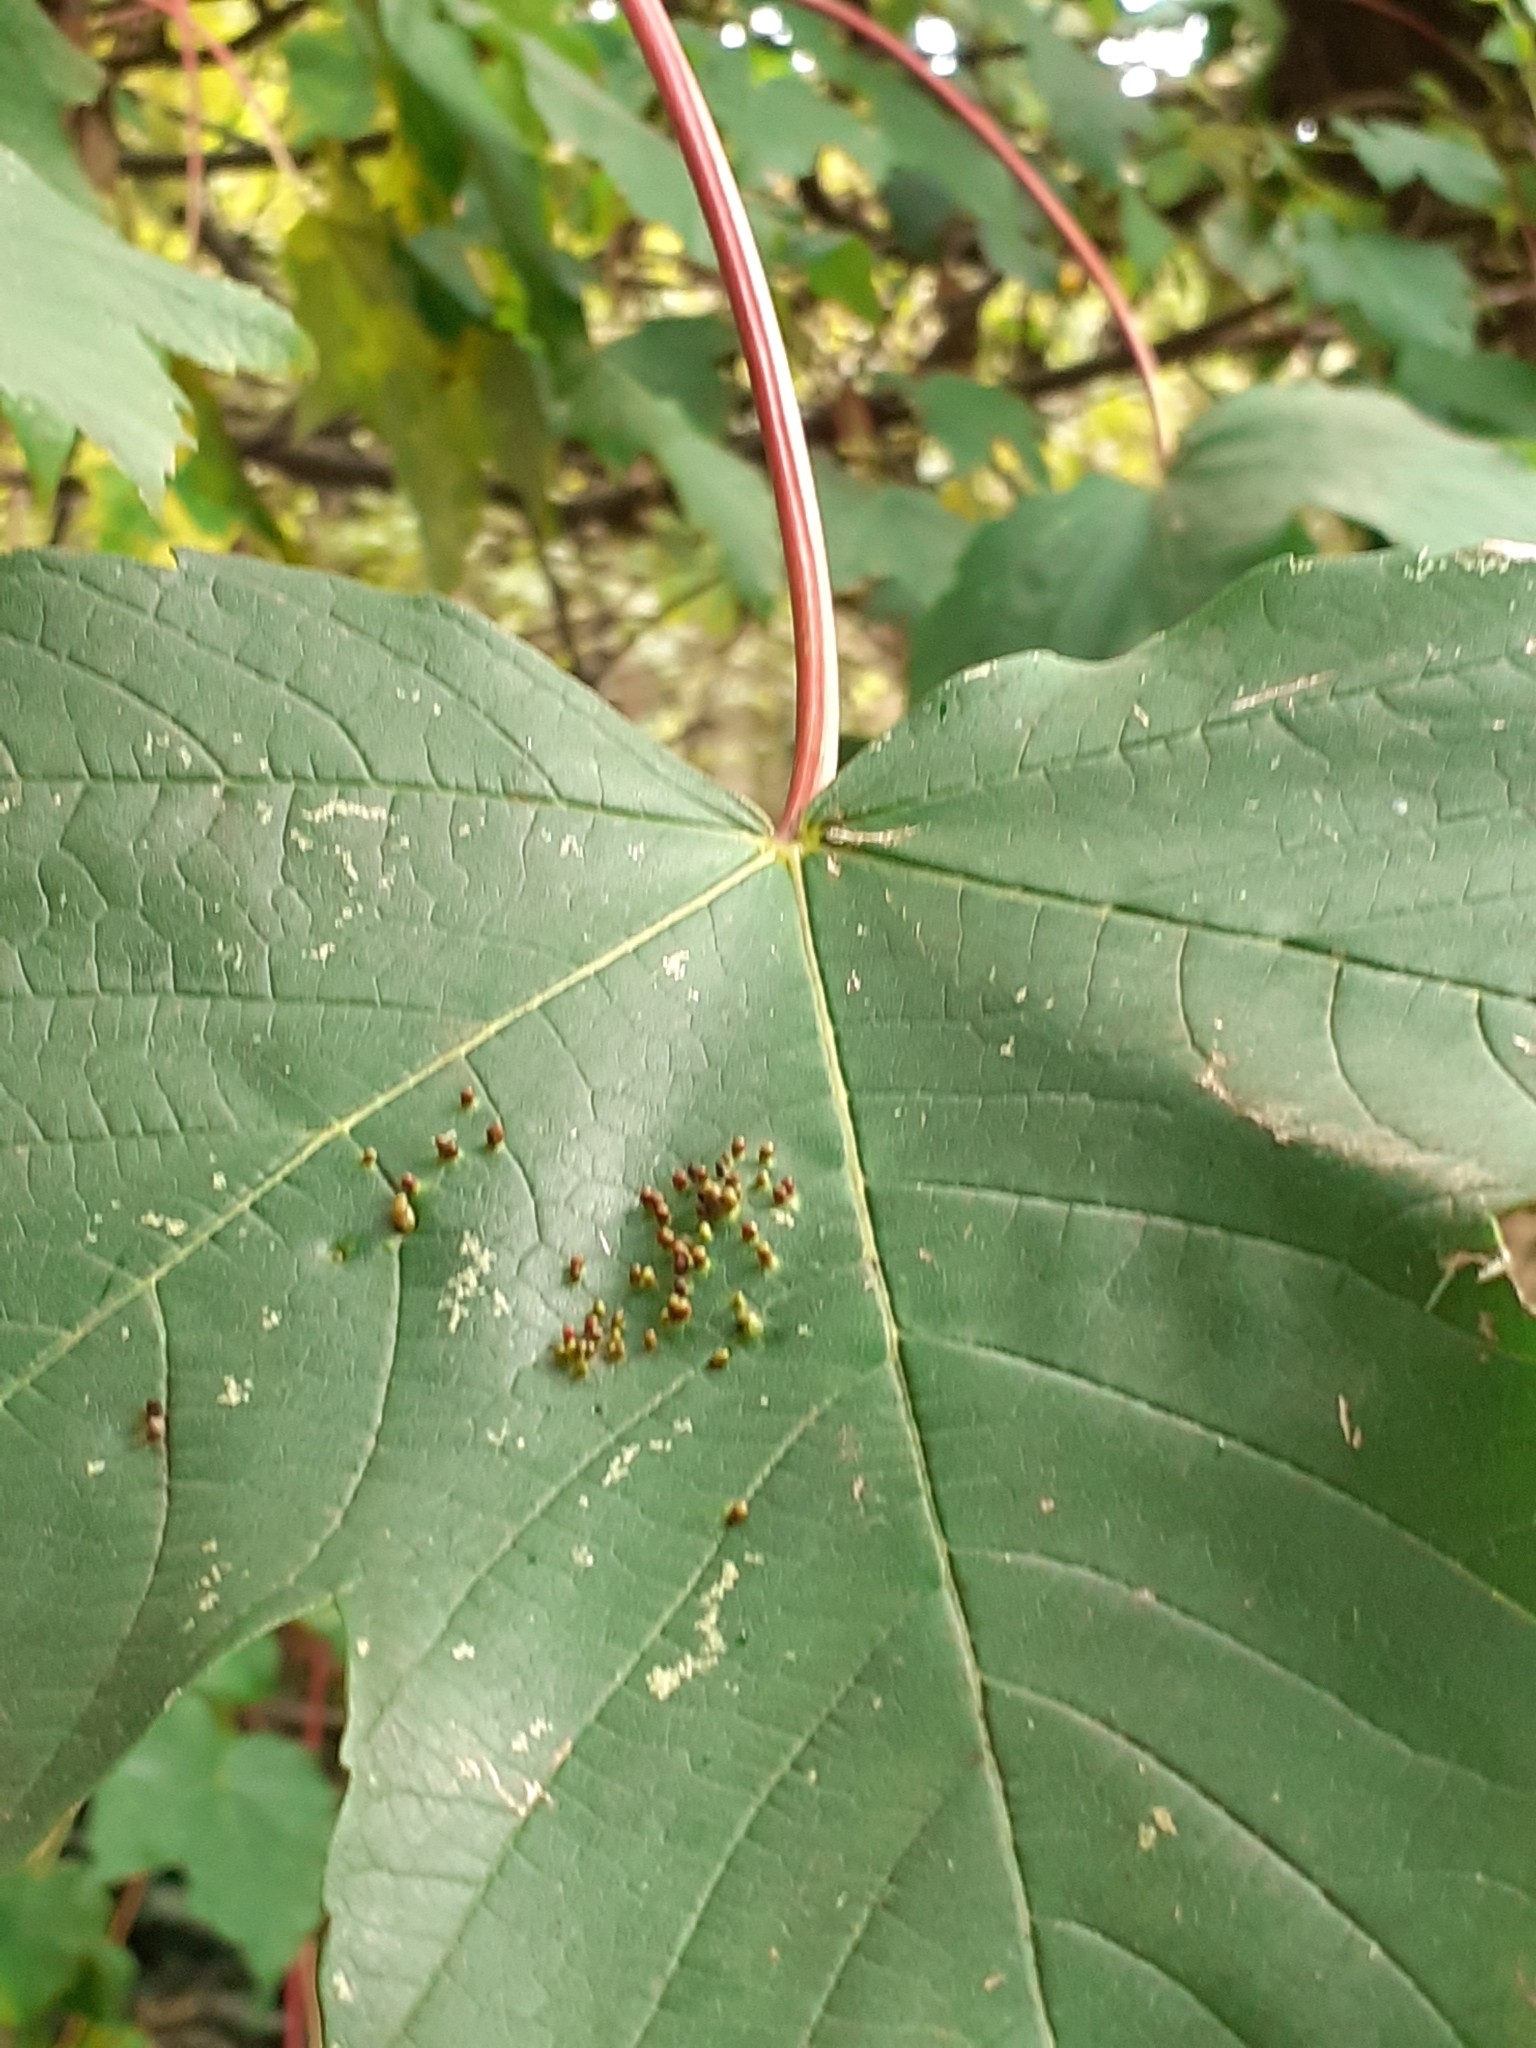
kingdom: Animalia
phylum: Arthropoda
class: Arachnida
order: Trombidiformes
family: Eriophyidae
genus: Aceria
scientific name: Aceria cephaloneus
